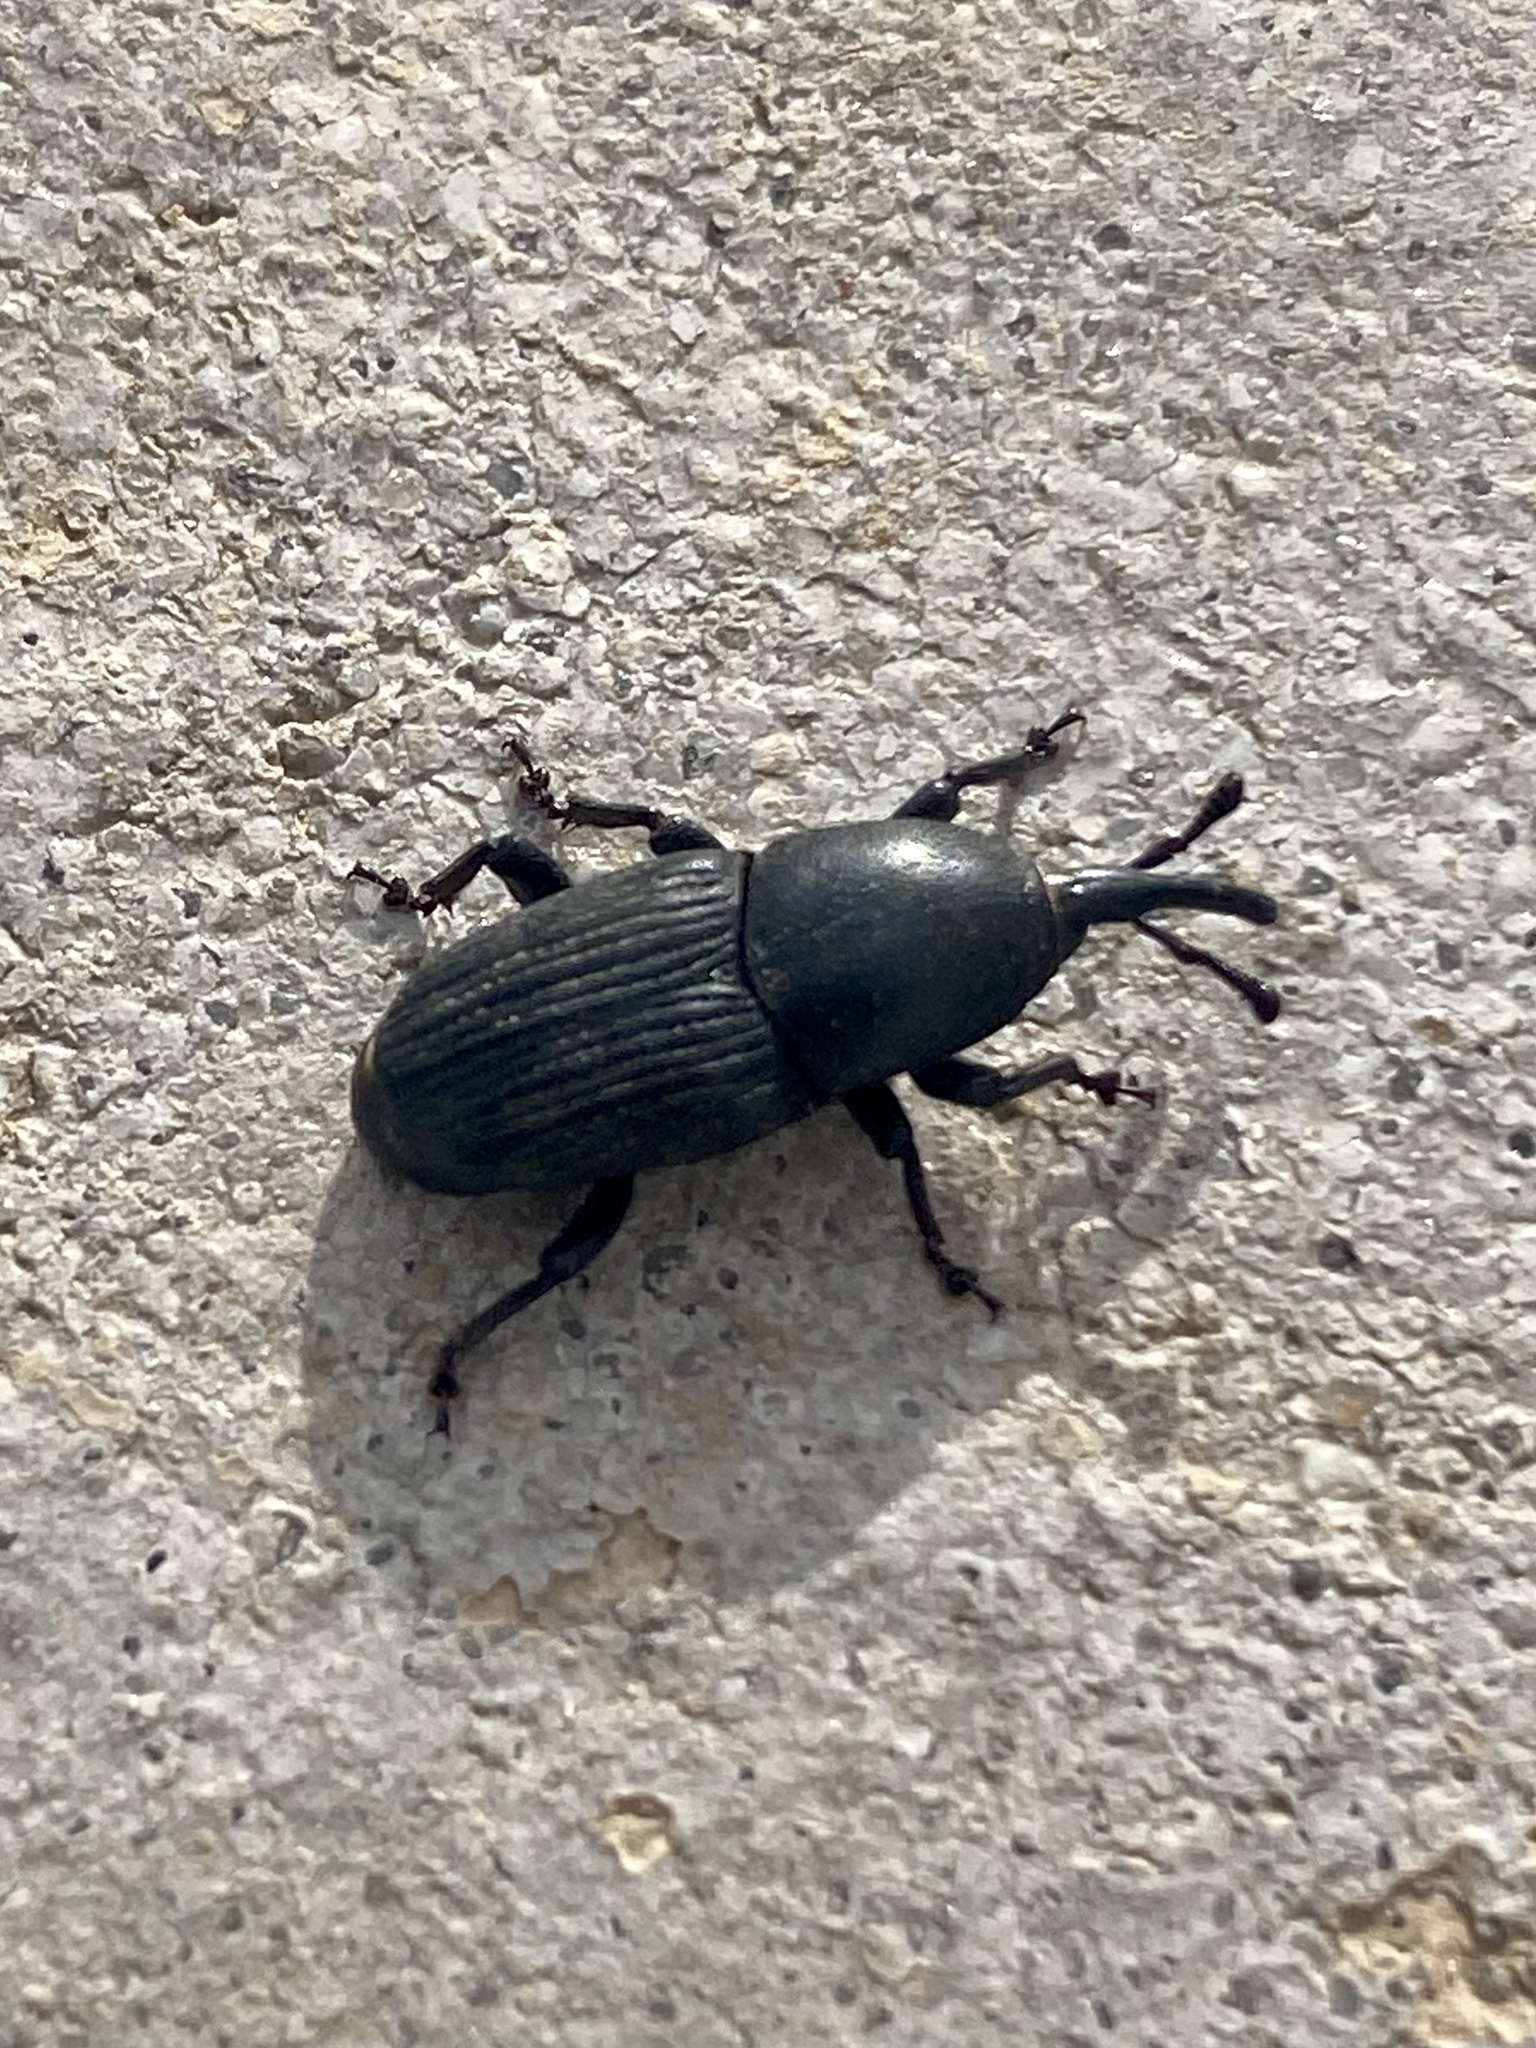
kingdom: Animalia
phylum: Arthropoda
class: Insecta
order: Coleoptera
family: Dryophthoridae
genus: Scyphophorus
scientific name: Scyphophorus acupunctatus
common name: Weevil
